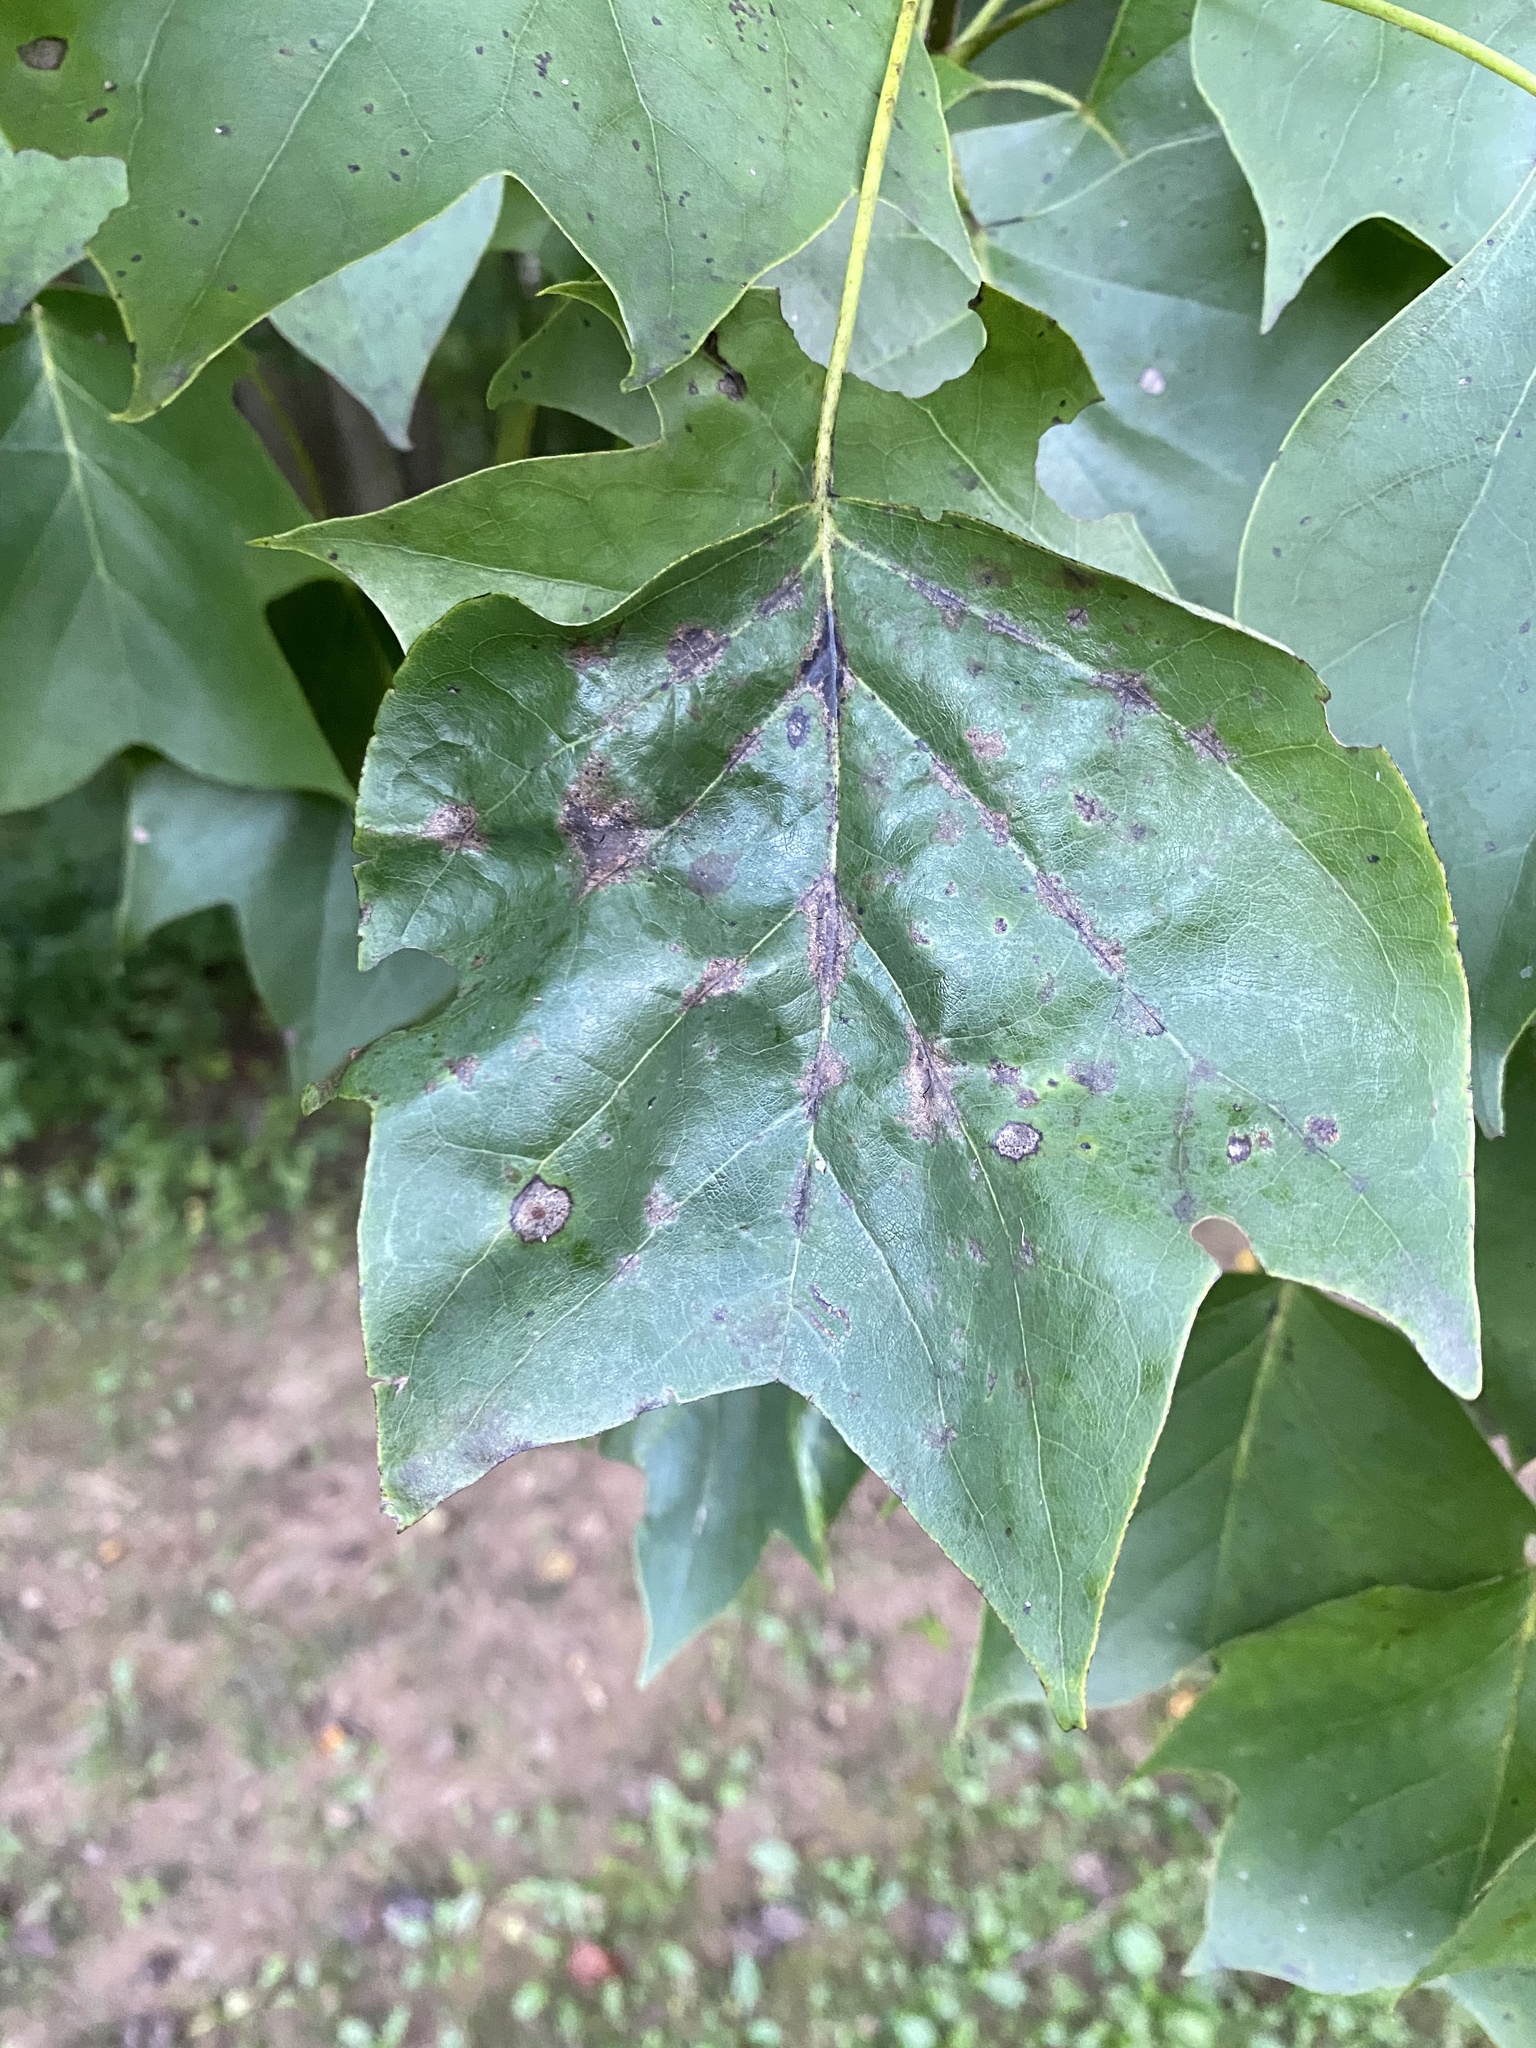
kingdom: Animalia
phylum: Arthropoda
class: Insecta
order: Diptera
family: Cecidomyiidae
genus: Resseliella
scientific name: Resseliella liriodendri
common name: Tulip tree leaf spot gall midge
